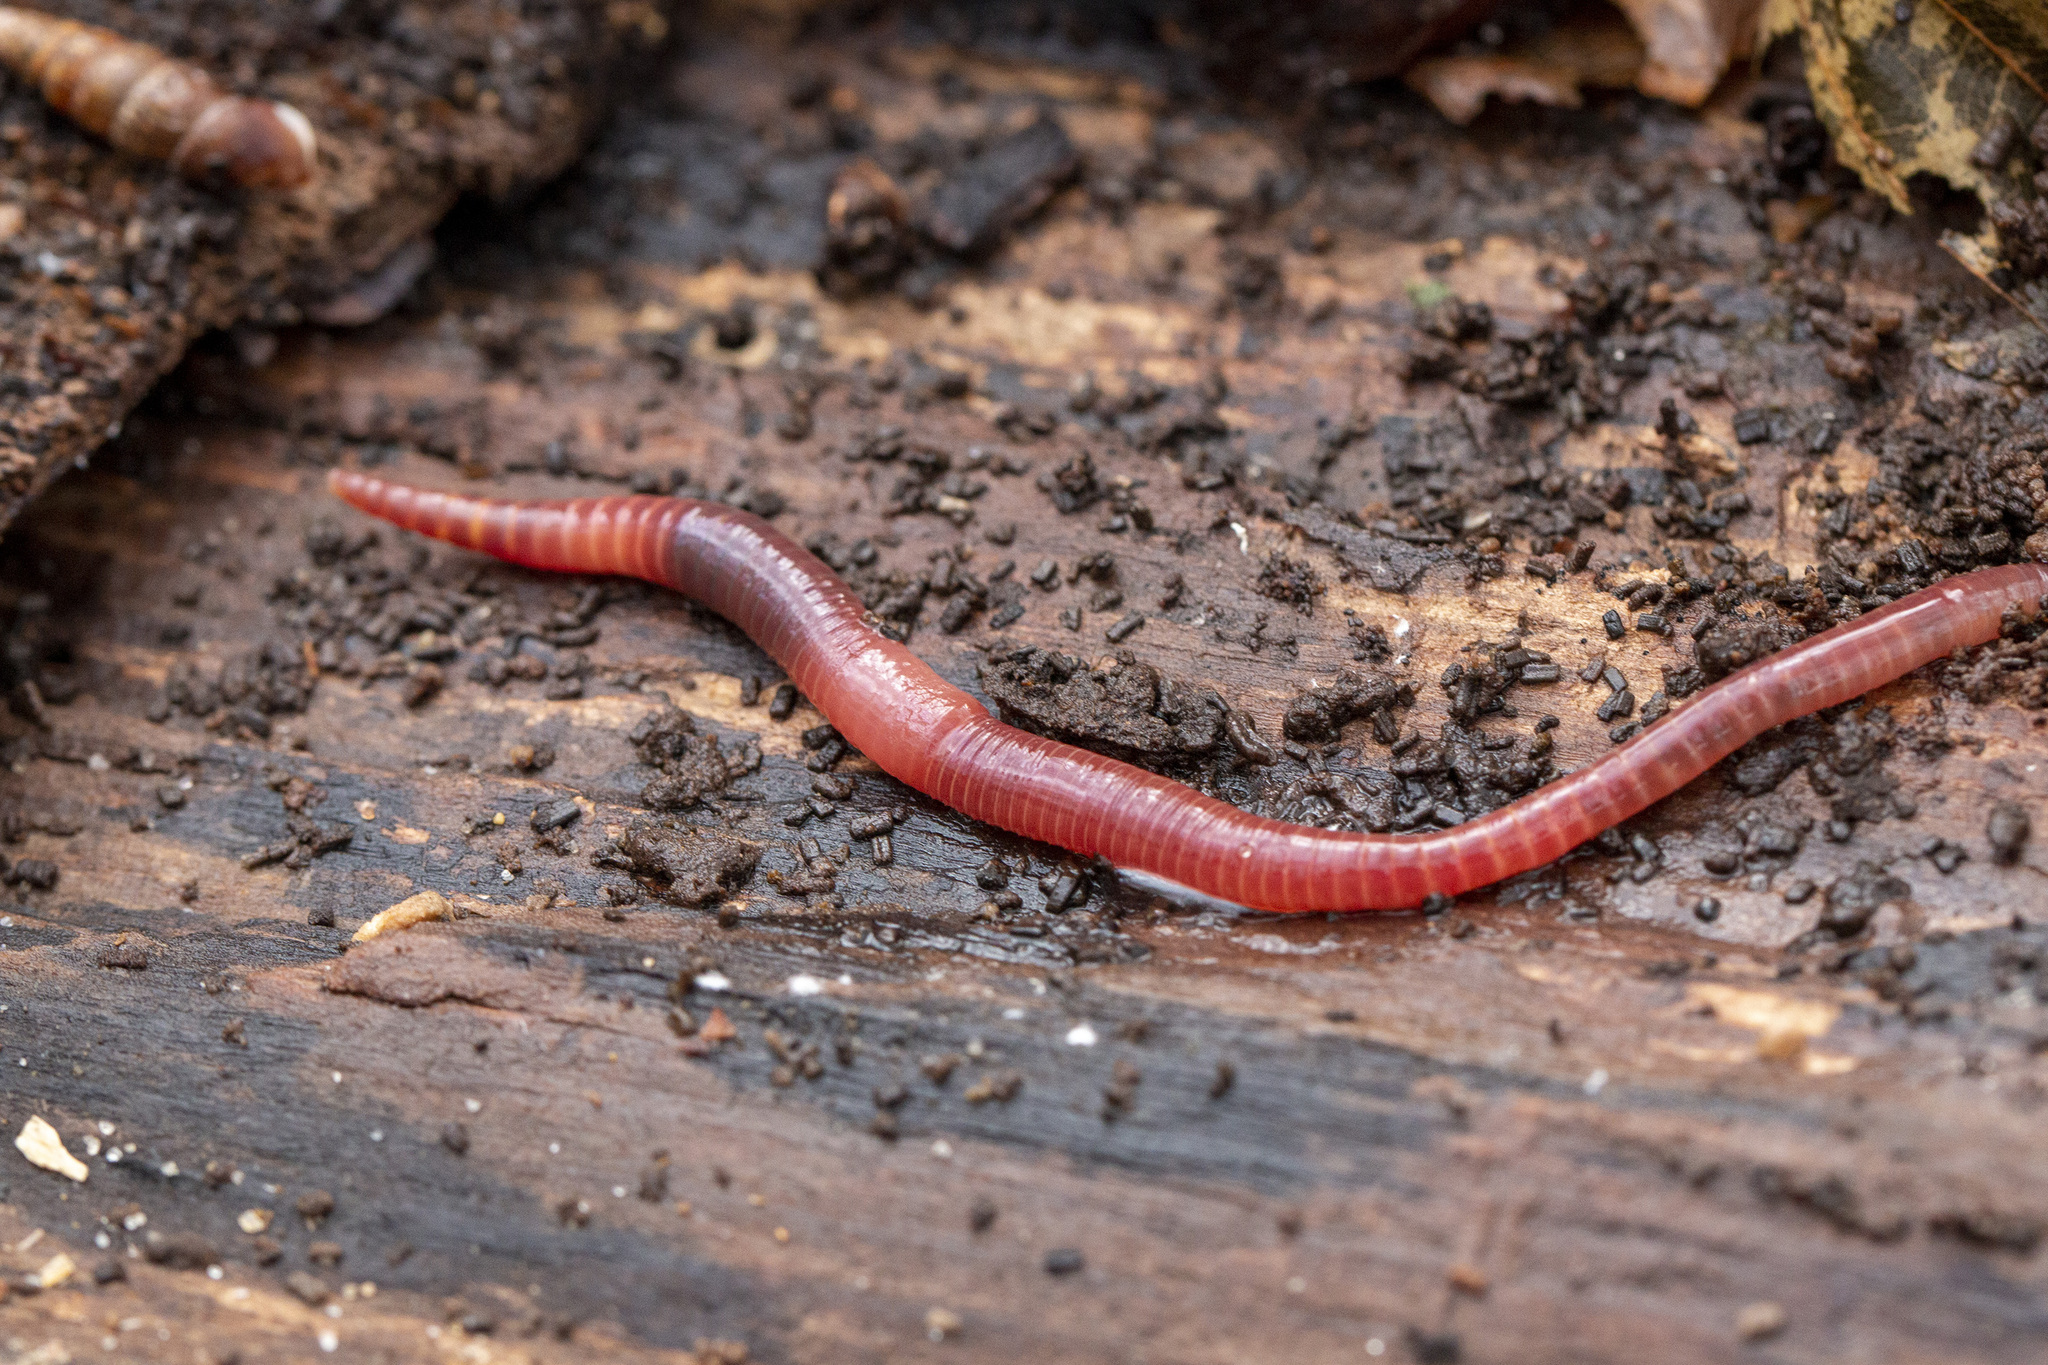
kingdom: Animalia
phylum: Annelida
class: Clitellata
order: Crassiclitellata
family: Lumbricidae
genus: Eisenia
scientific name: Eisenia fetida
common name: Red wiggler
